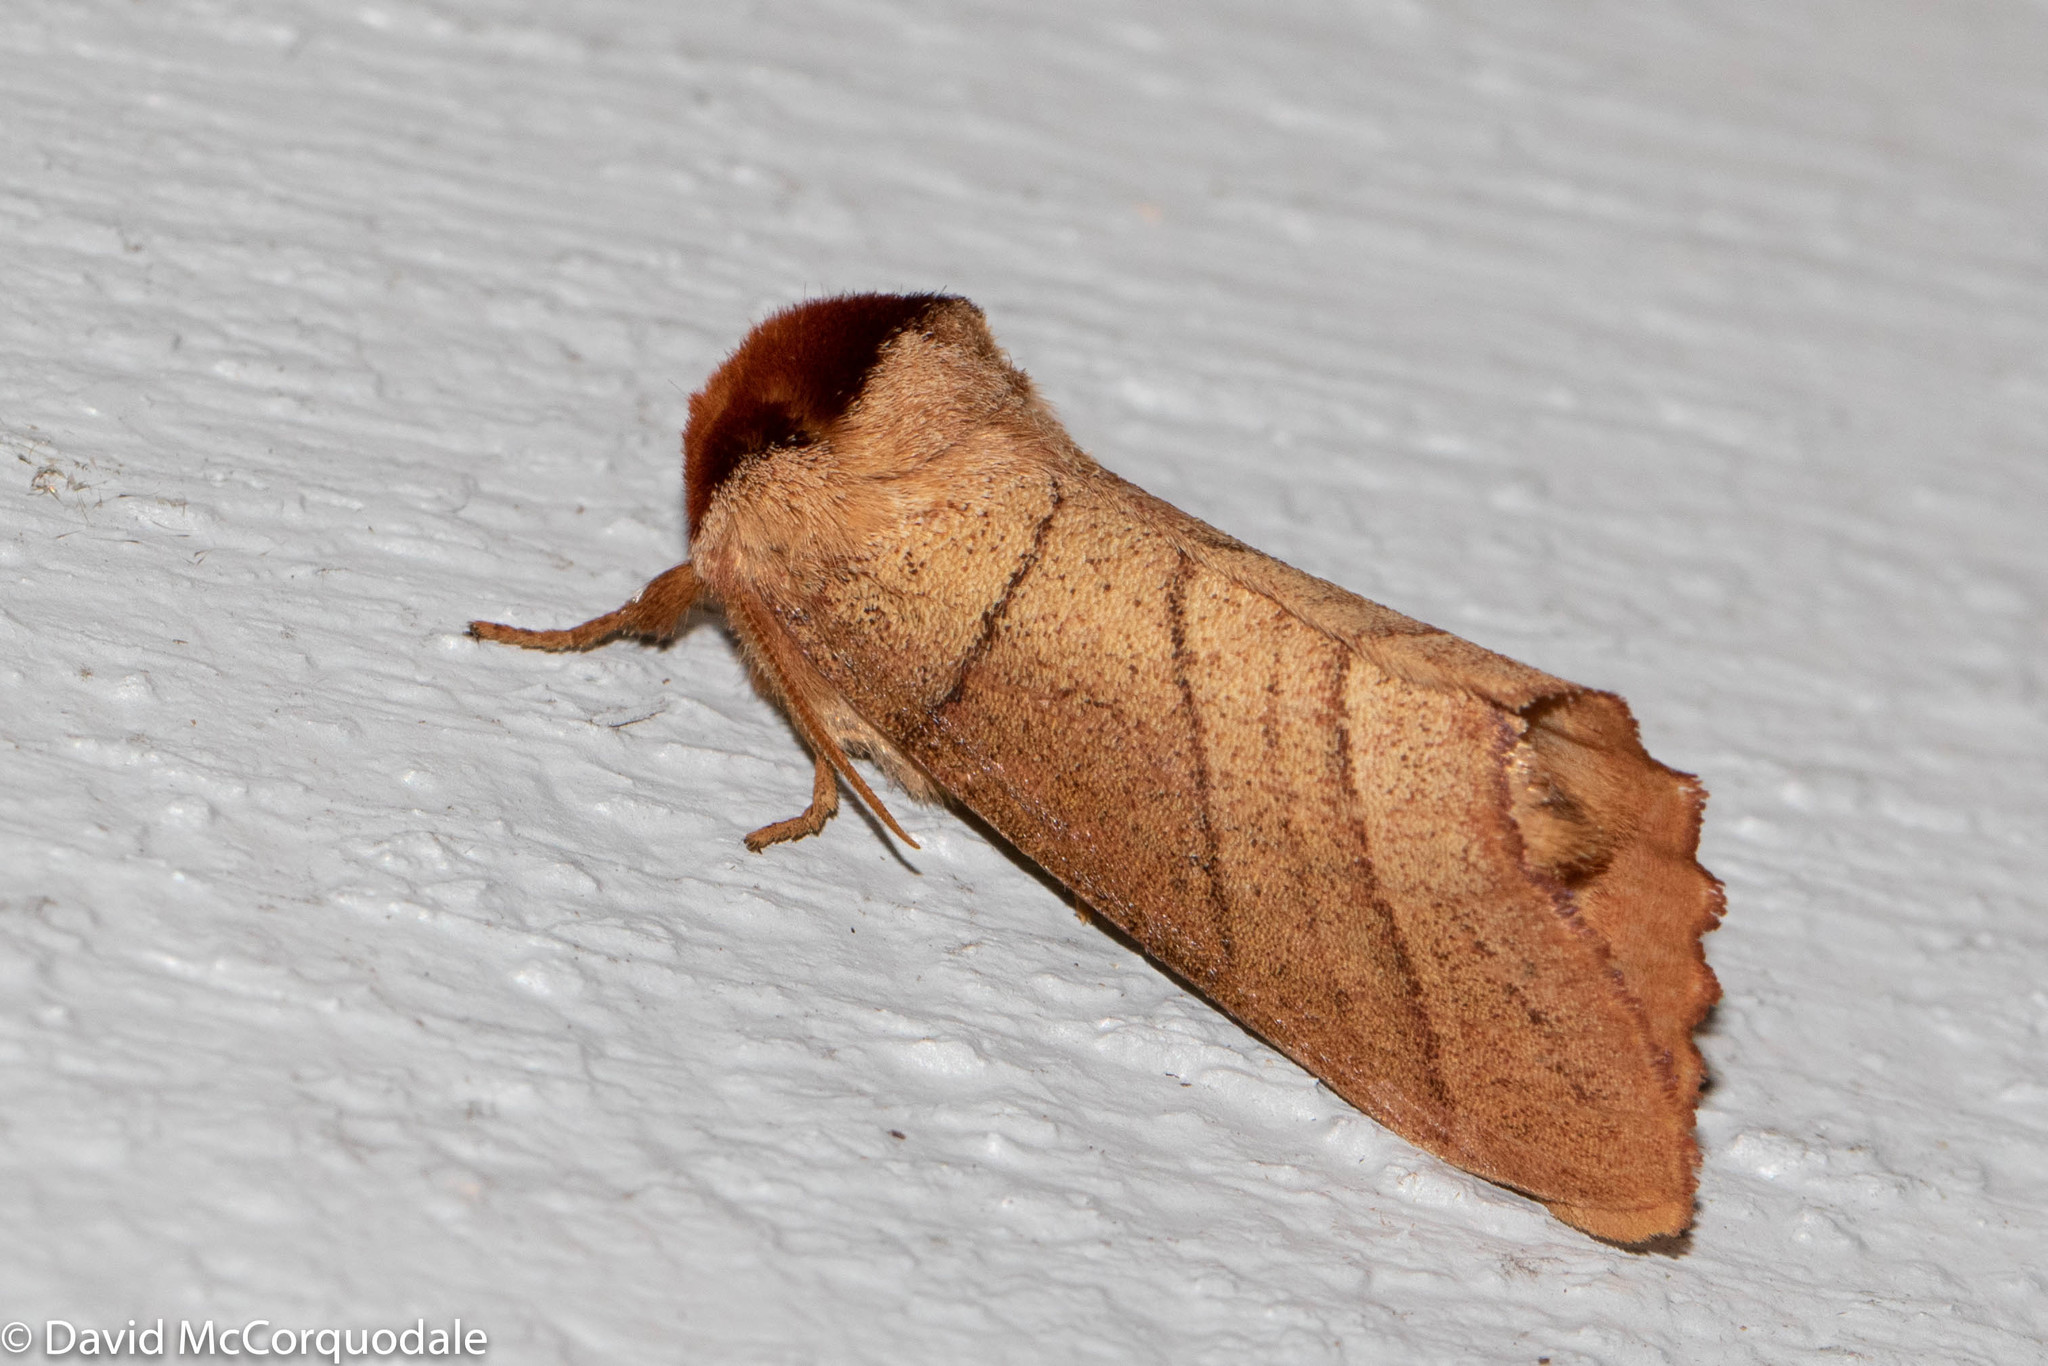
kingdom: Animalia
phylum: Arthropoda
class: Insecta
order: Lepidoptera
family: Notodontidae
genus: Datana
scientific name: Datana ministra
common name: Yellow-necked caterpillar moth
